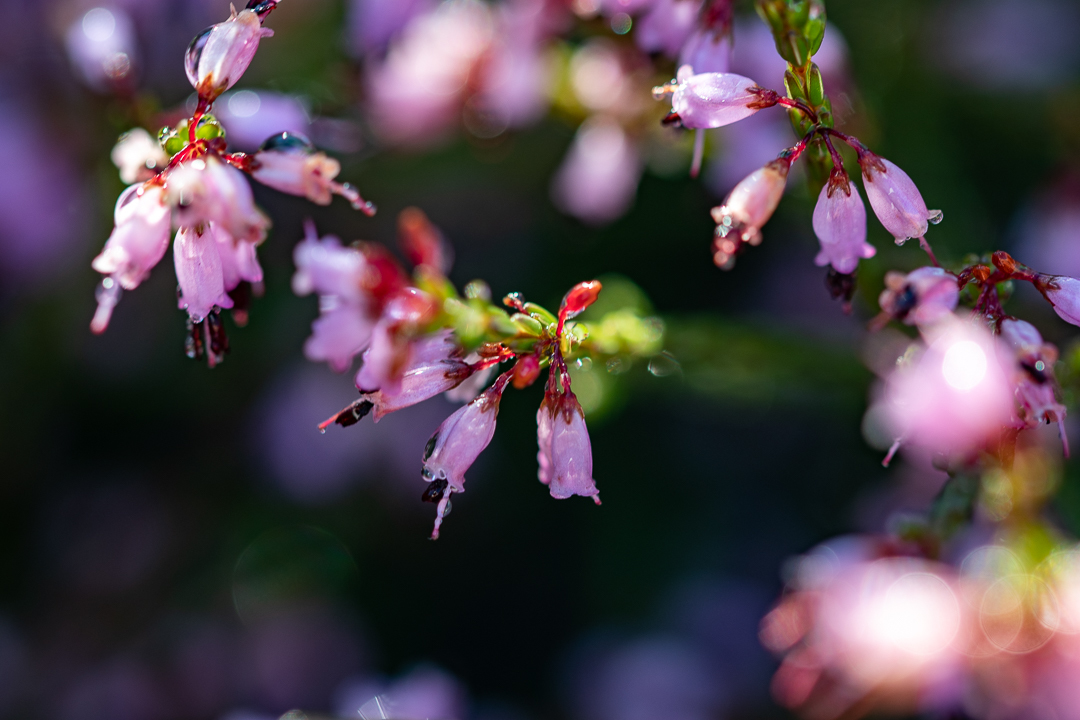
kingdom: Plantae
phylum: Tracheophyta
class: Magnoliopsida
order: Ericales
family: Ericaceae
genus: Erica
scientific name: Erica equisetifolia
